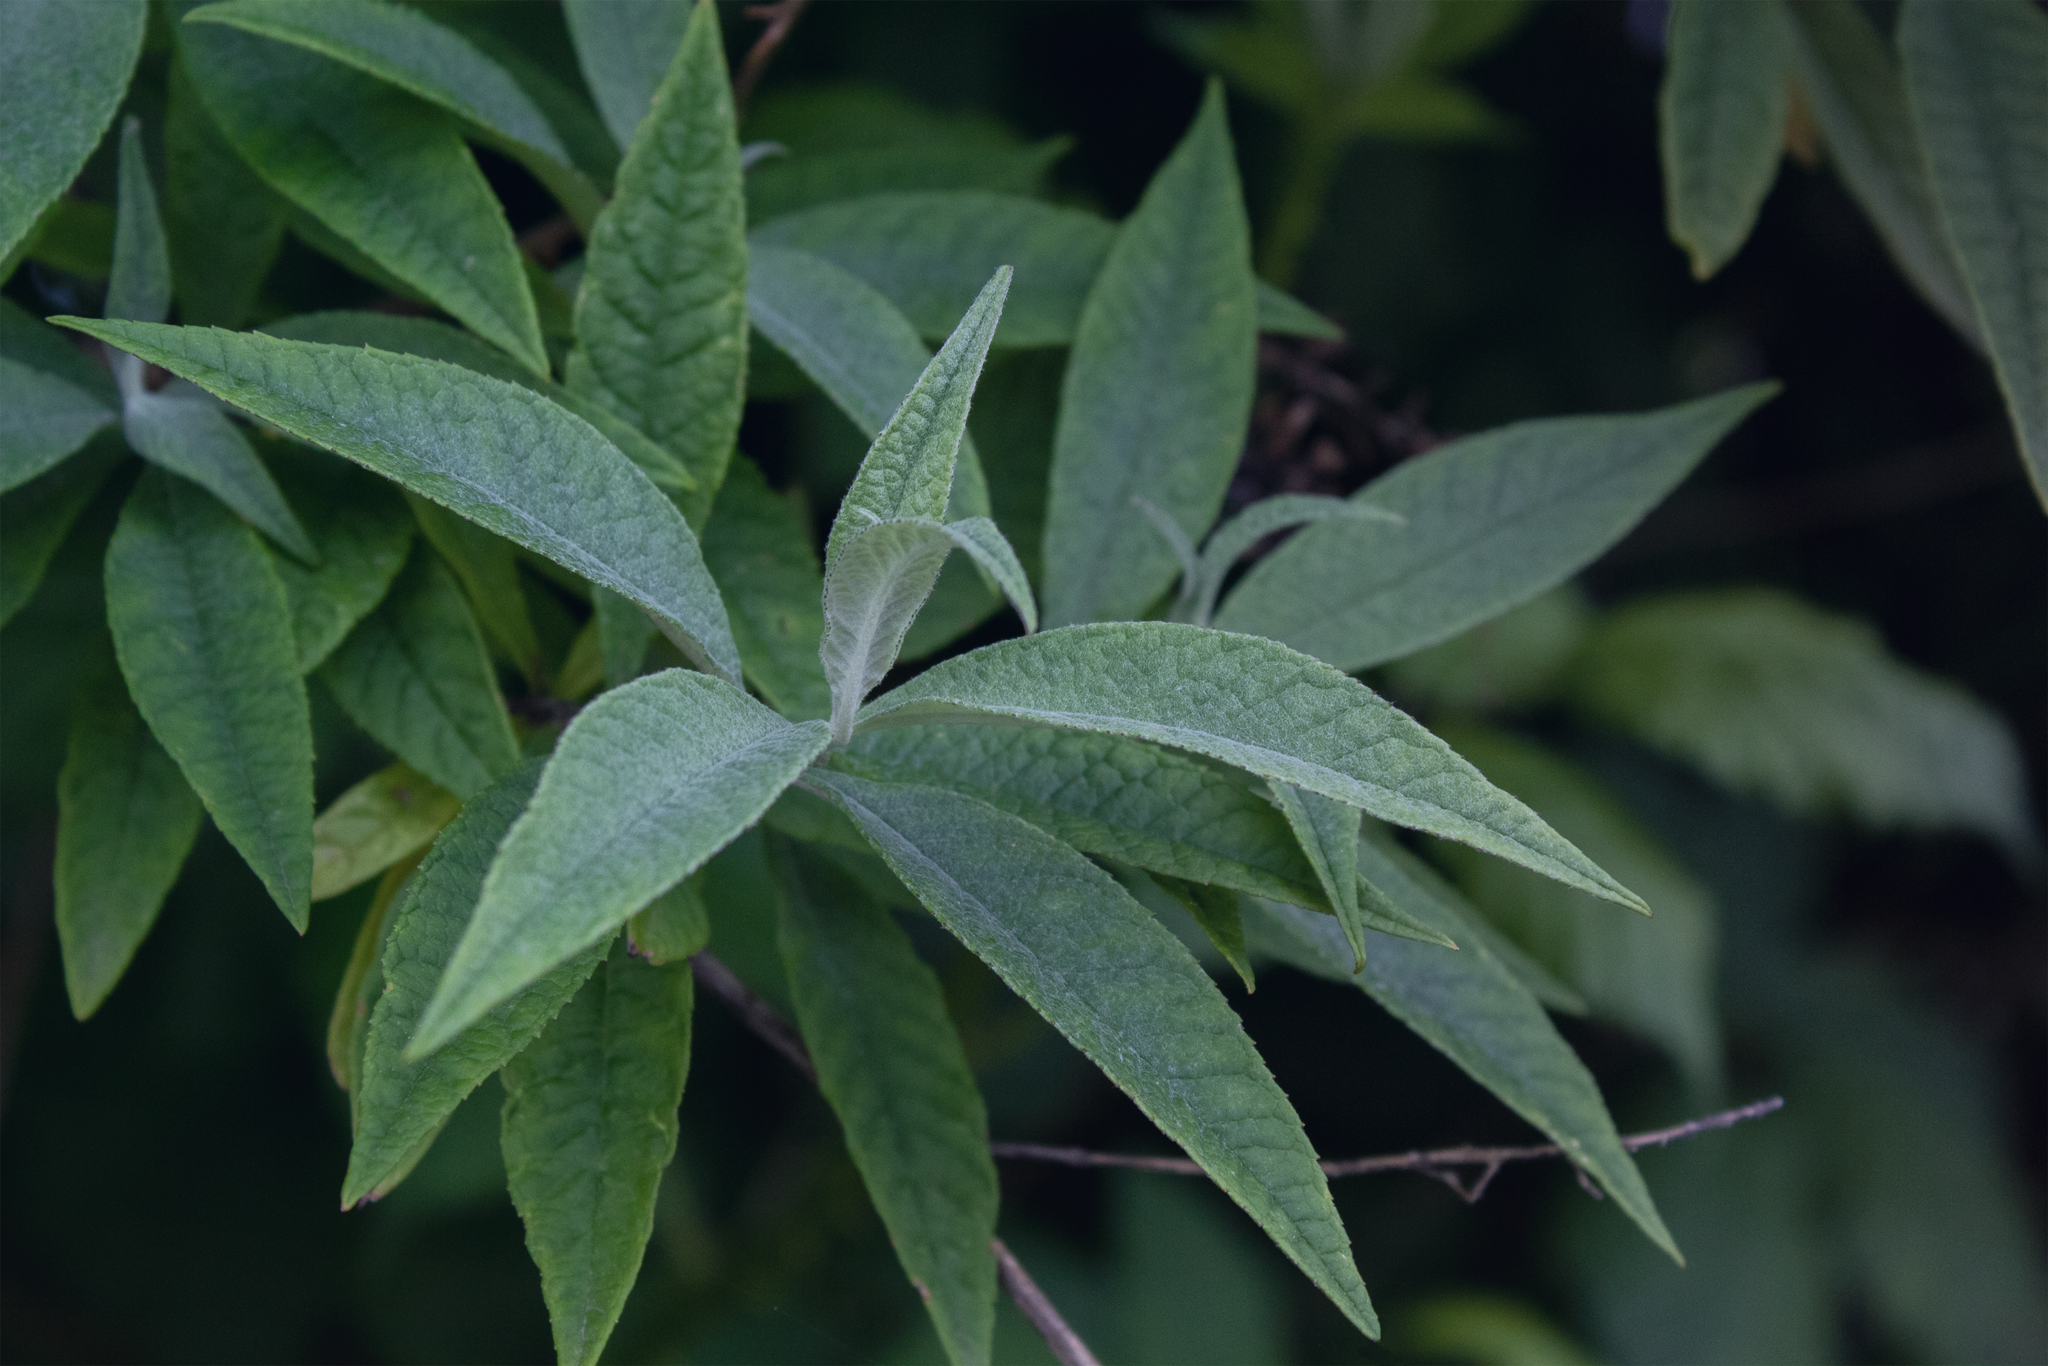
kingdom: Plantae
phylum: Tracheophyta
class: Magnoliopsida
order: Lamiales
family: Scrophulariaceae
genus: Buddleja
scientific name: Buddleja davidii
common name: Butterfly-bush
